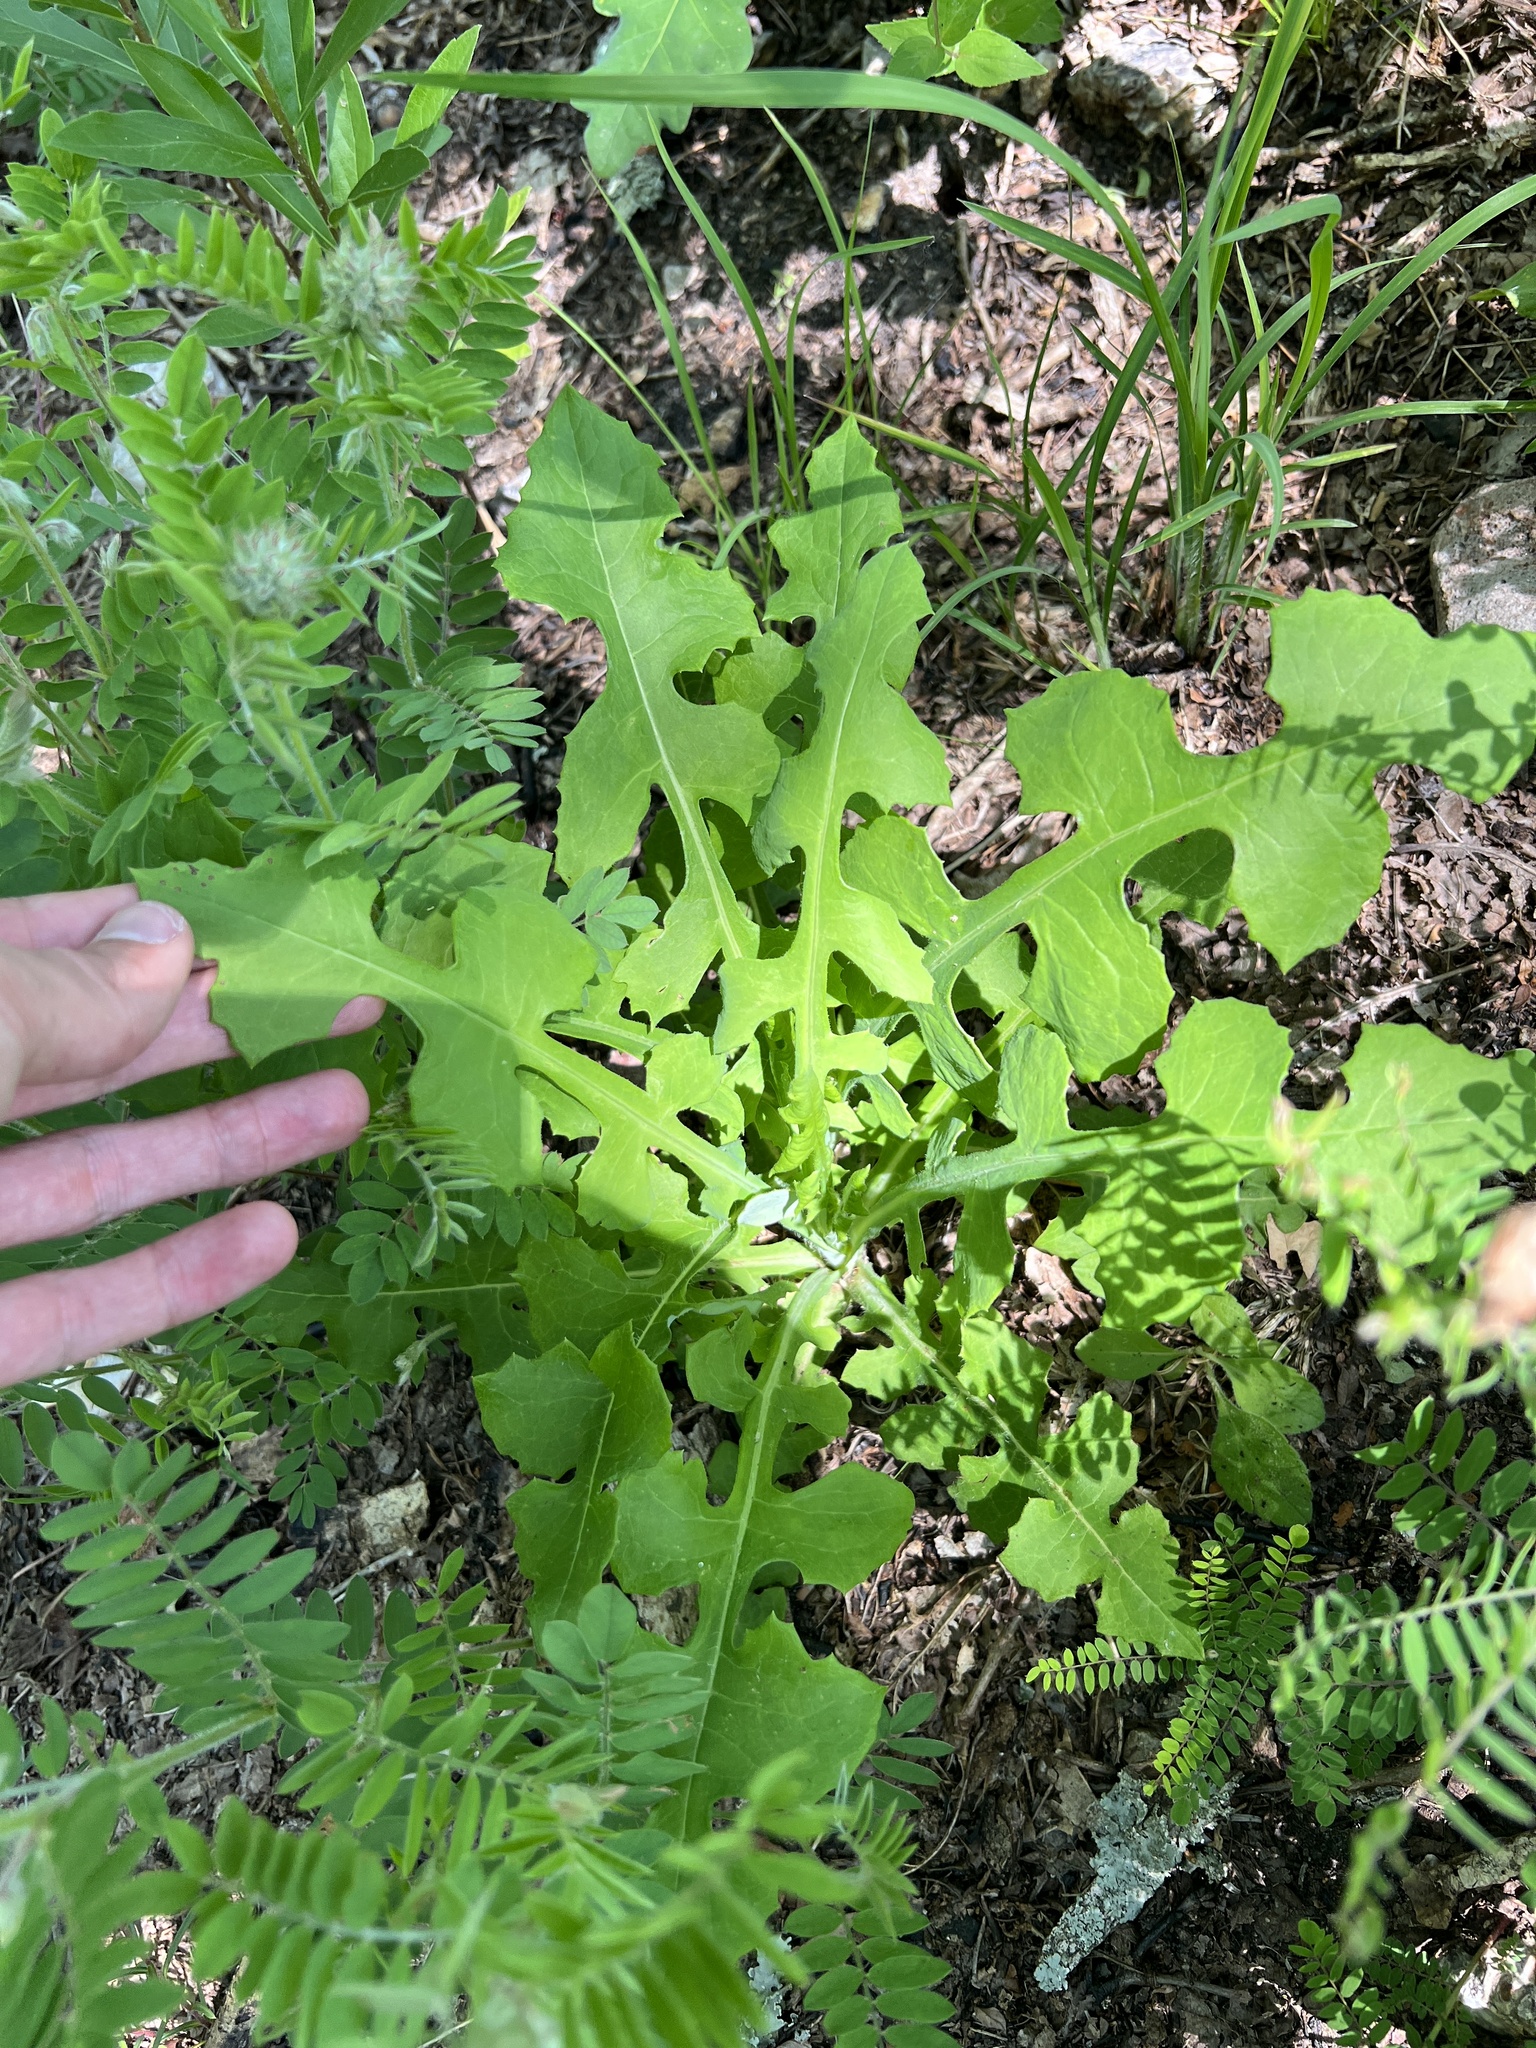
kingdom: Plantae
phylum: Tracheophyta
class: Magnoliopsida
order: Asterales
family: Asteraceae
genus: Lactuca
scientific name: Lactuca hirsuta
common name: Hairy lettuce
